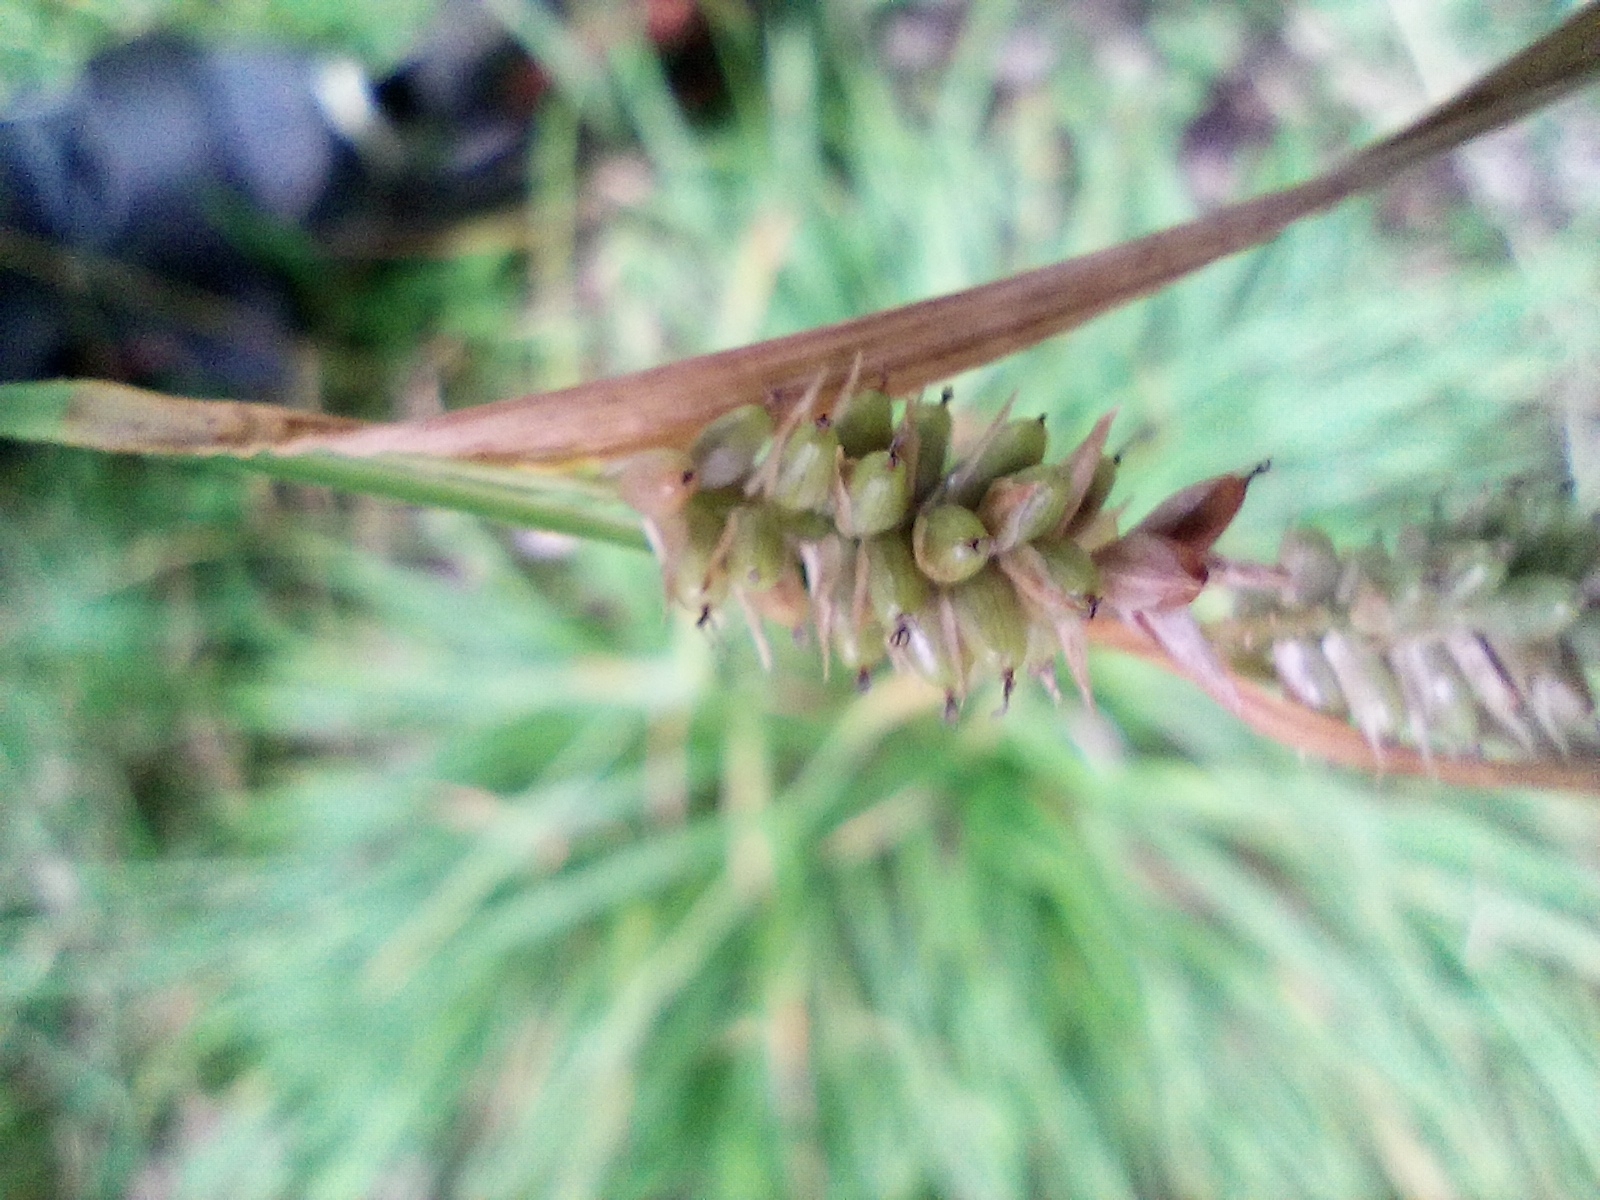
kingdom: Plantae
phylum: Tracheophyta
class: Liliopsida
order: Poales
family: Cyperaceae
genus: Carex
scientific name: Carex pallescens
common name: Pale sedge
